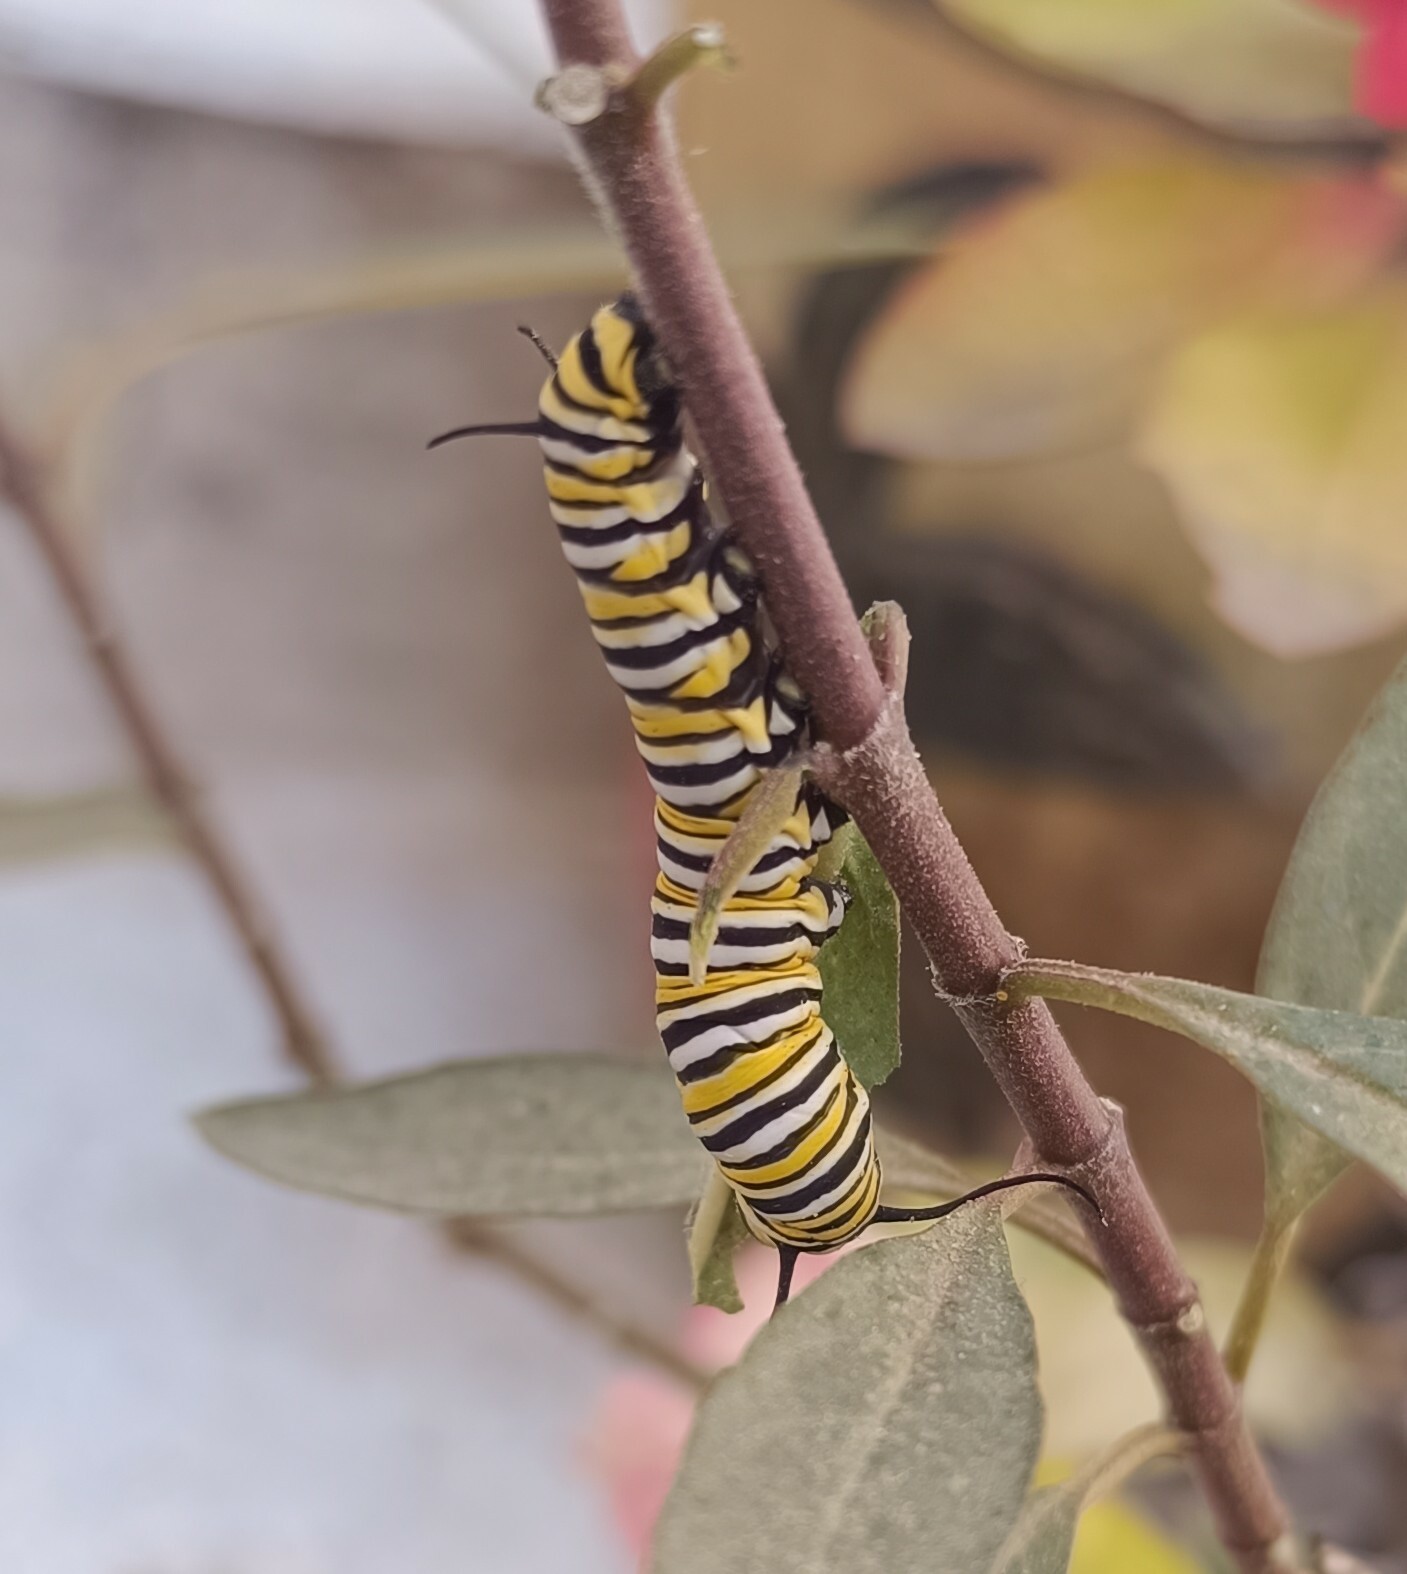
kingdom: Animalia
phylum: Arthropoda
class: Insecta
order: Lepidoptera
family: Nymphalidae
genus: Danaus
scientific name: Danaus plexippus
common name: Monarch
